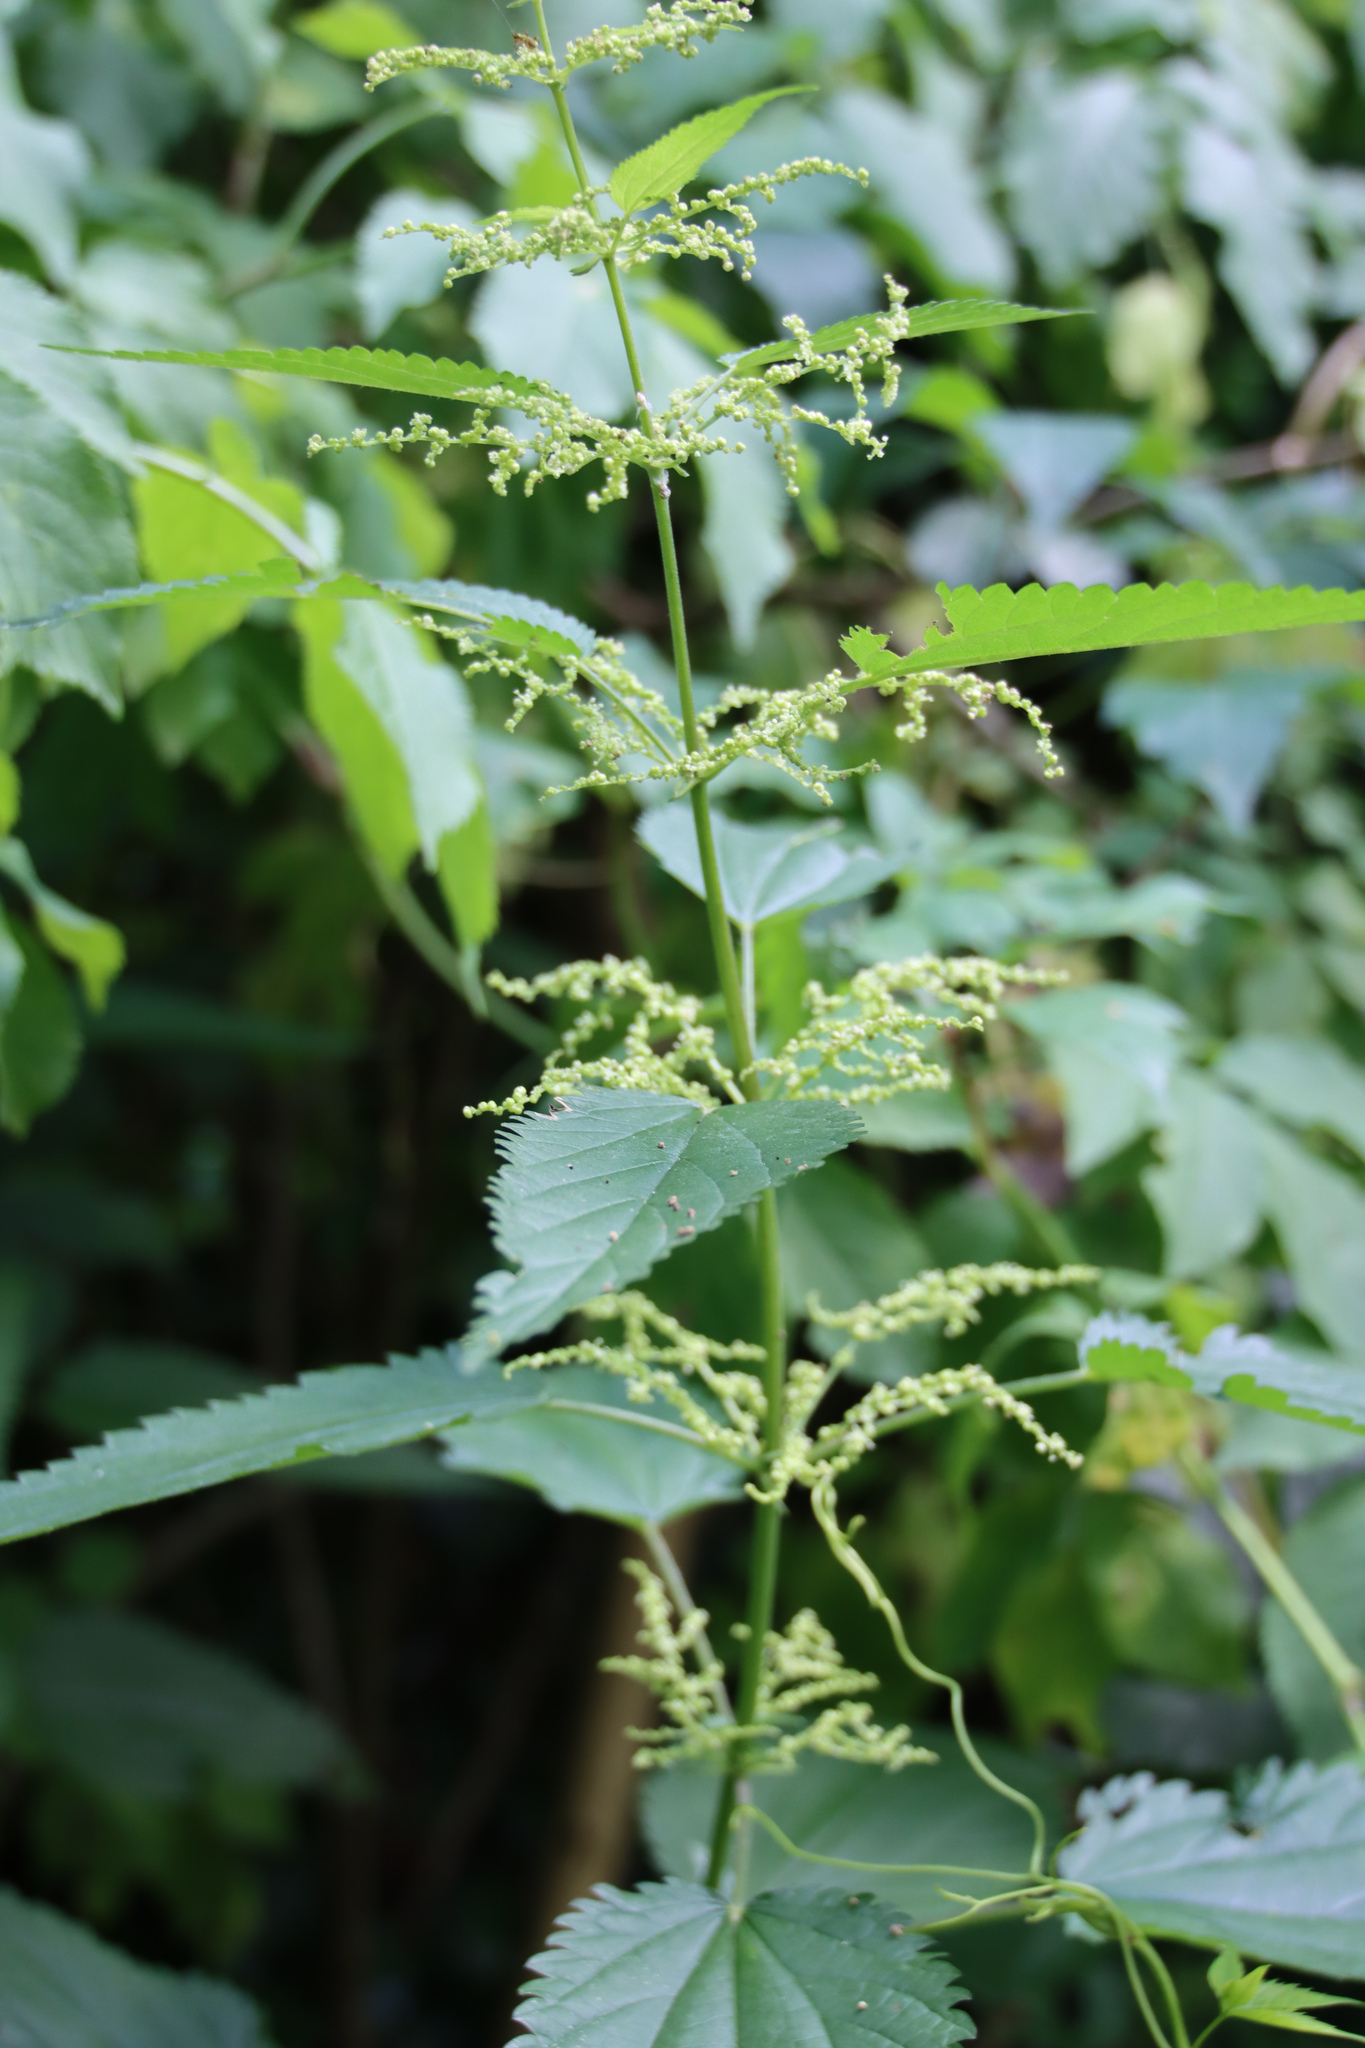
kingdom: Plantae
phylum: Tracheophyta
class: Magnoliopsida
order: Rosales
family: Urticaceae
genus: Urtica
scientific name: Urtica dioica
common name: Common nettle
